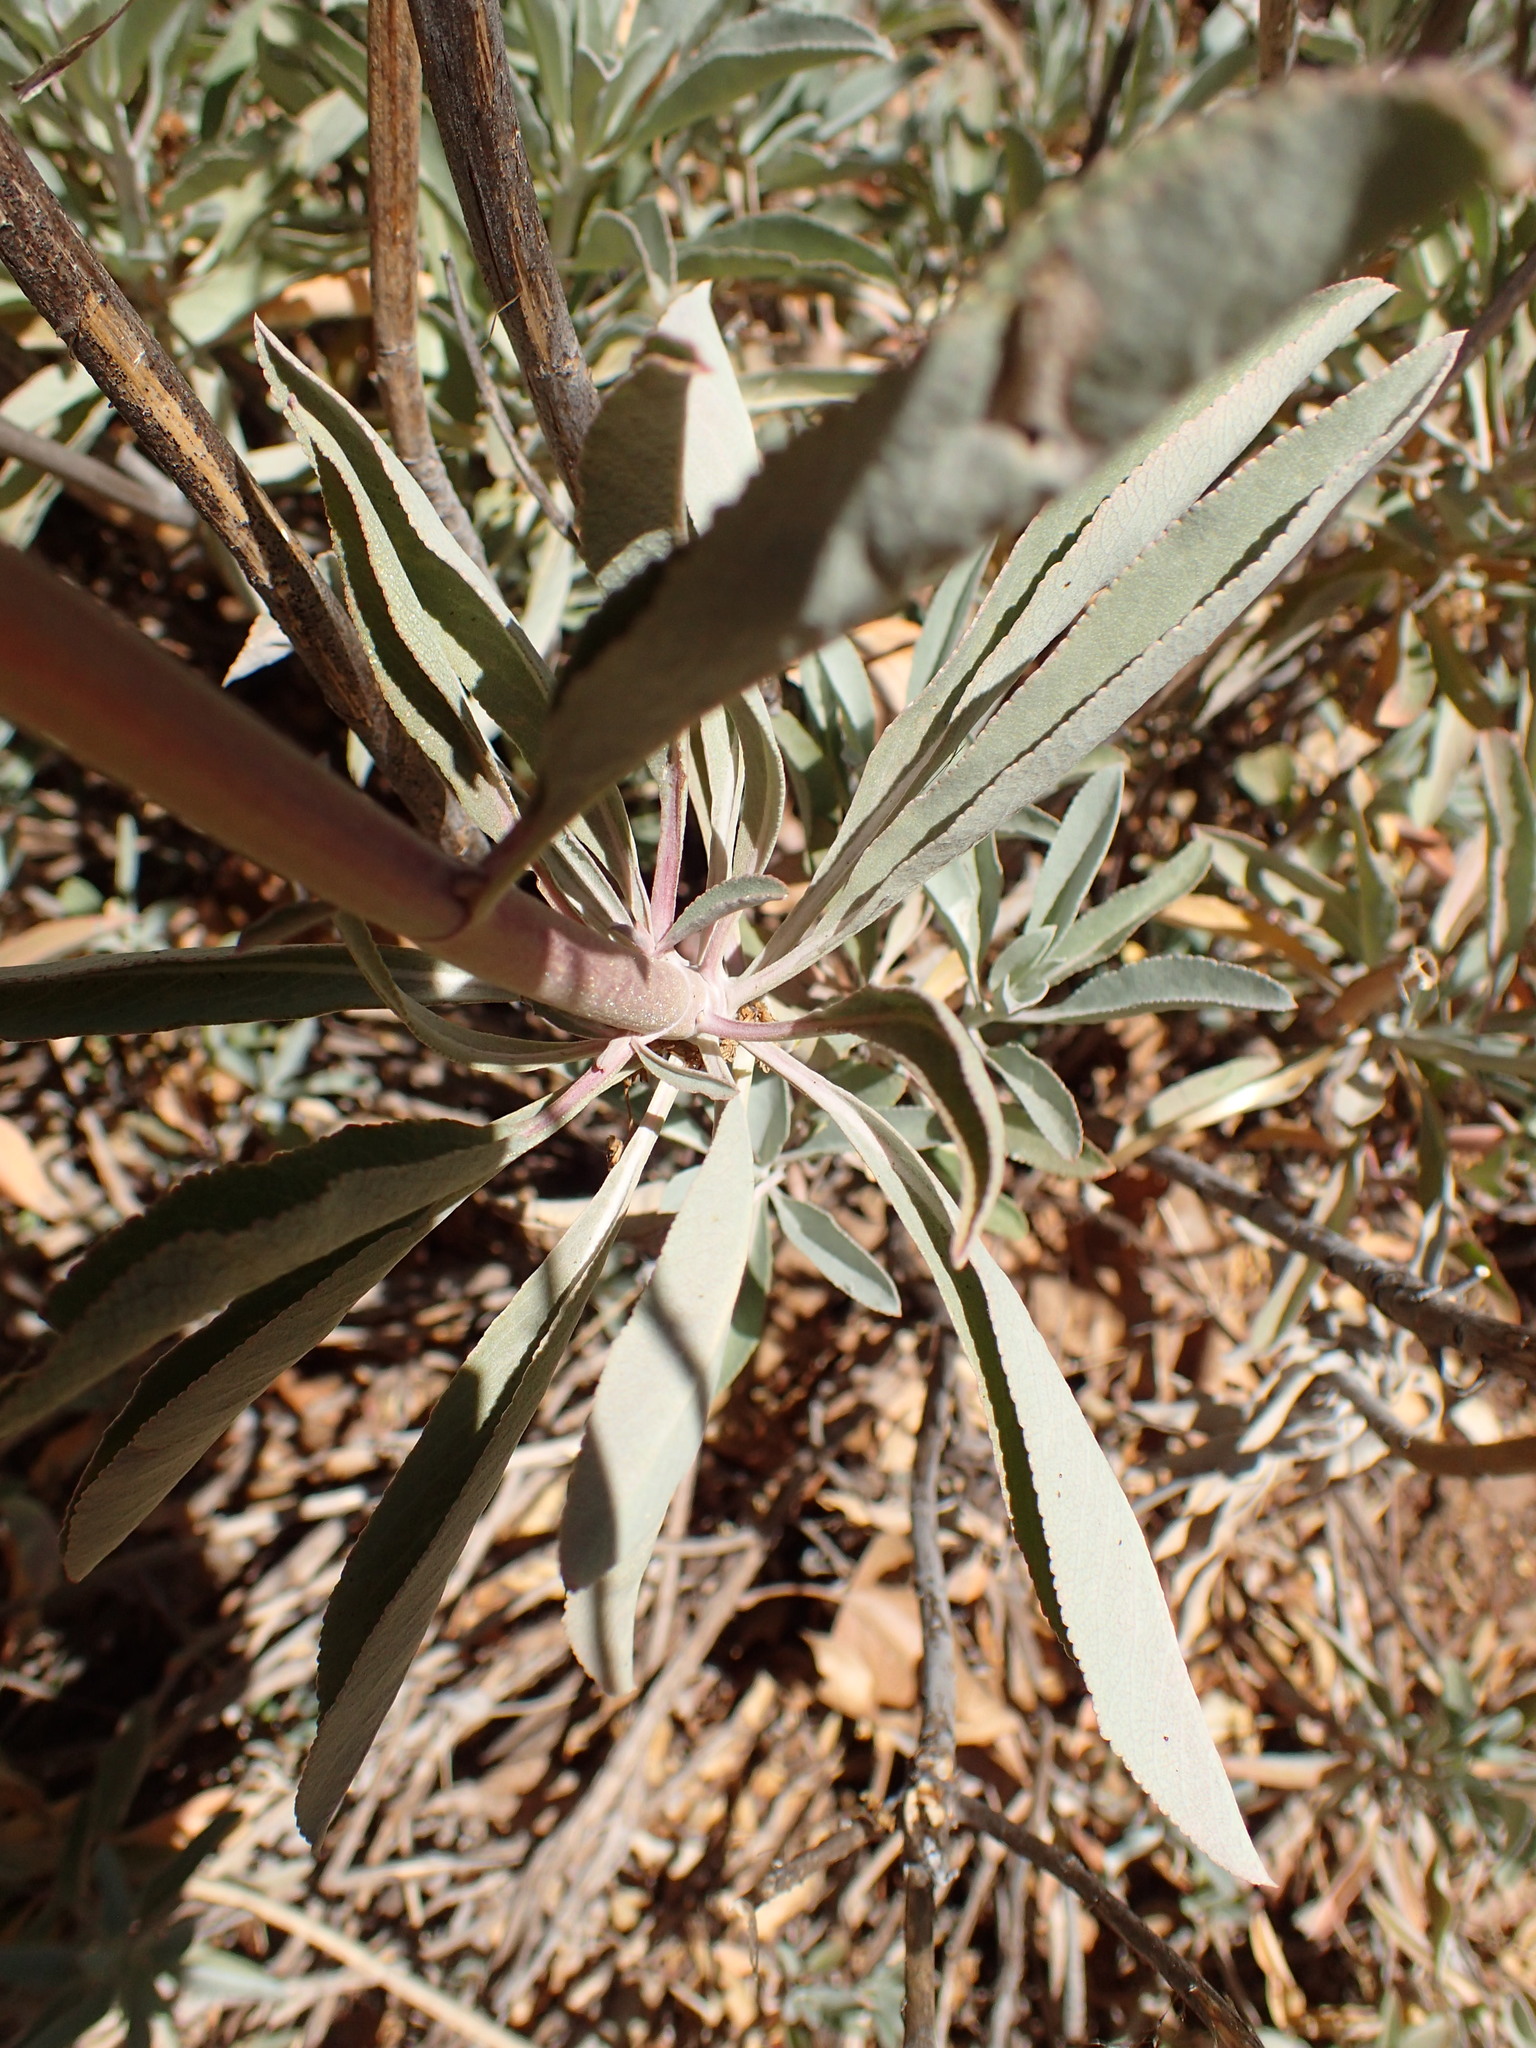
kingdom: Plantae
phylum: Tracheophyta
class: Magnoliopsida
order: Lamiales
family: Lamiaceae
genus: Salvia
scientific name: Salvia apiana
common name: White sage
